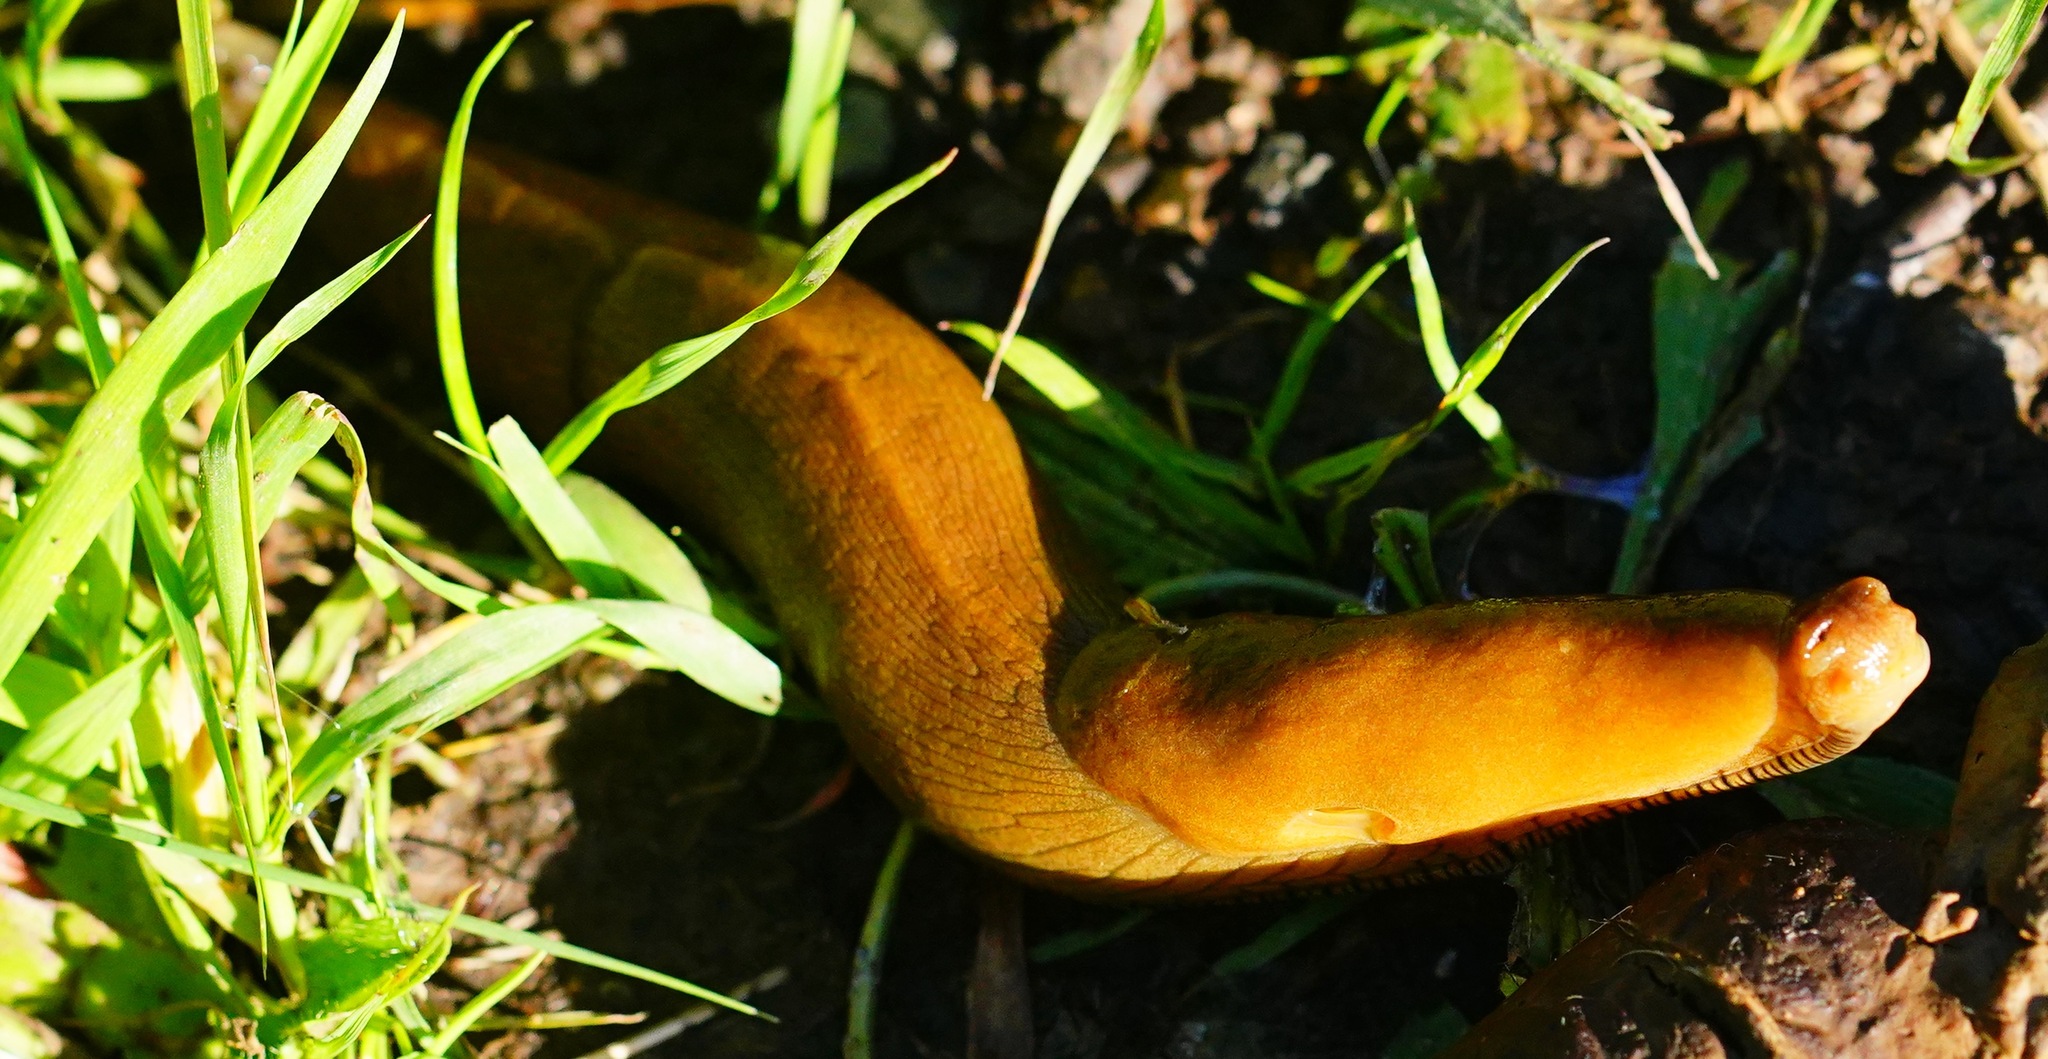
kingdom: Animalia
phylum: Mollusca
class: Gastropoda
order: Stylommatophora
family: Ariolimacidae
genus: Ariolimax
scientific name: Ariolimax buttoni
